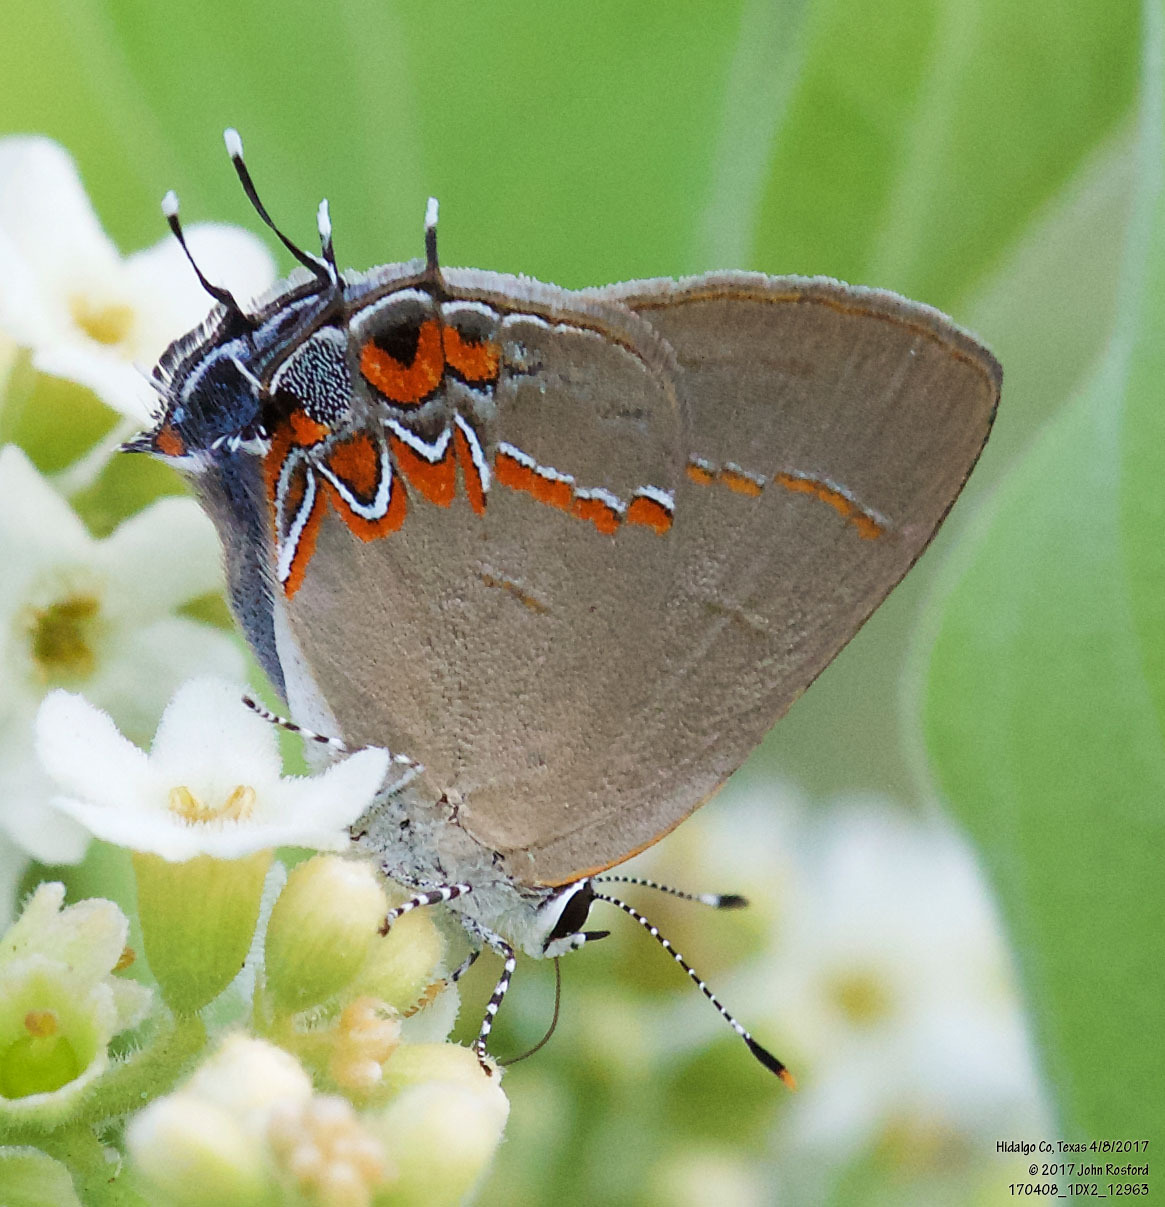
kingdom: Animalia
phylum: Arthropoda
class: Insecta
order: Lepidoptera
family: Lycaenidae
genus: Calycopis
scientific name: Calycopis isobeon
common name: Dusky-blue groundstreak
